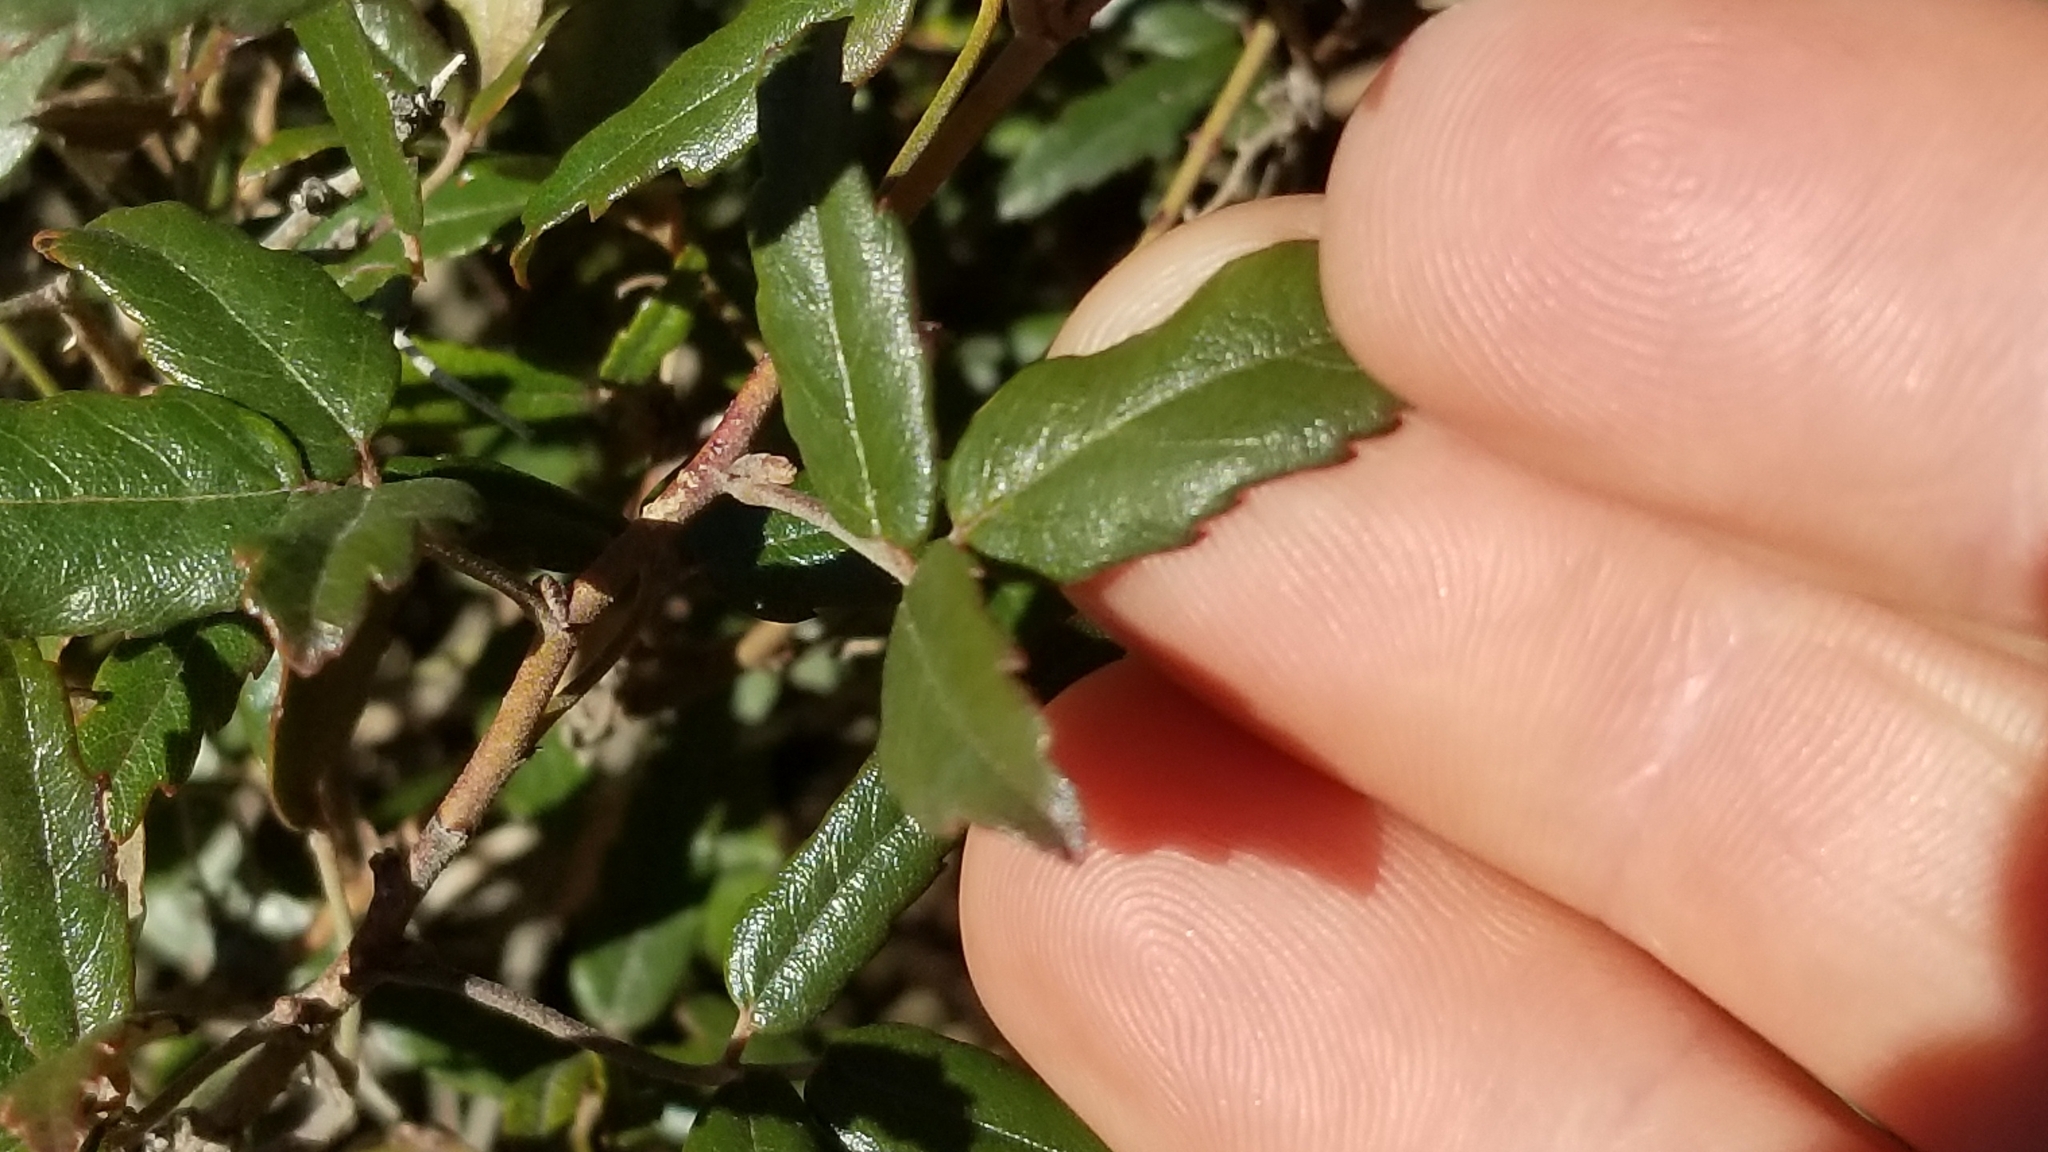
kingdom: Plantae
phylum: Tracheophyta
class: Magnoliopsida
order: Rosales
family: Rosaceae
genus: Rubus
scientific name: Rubus schmidelioides
